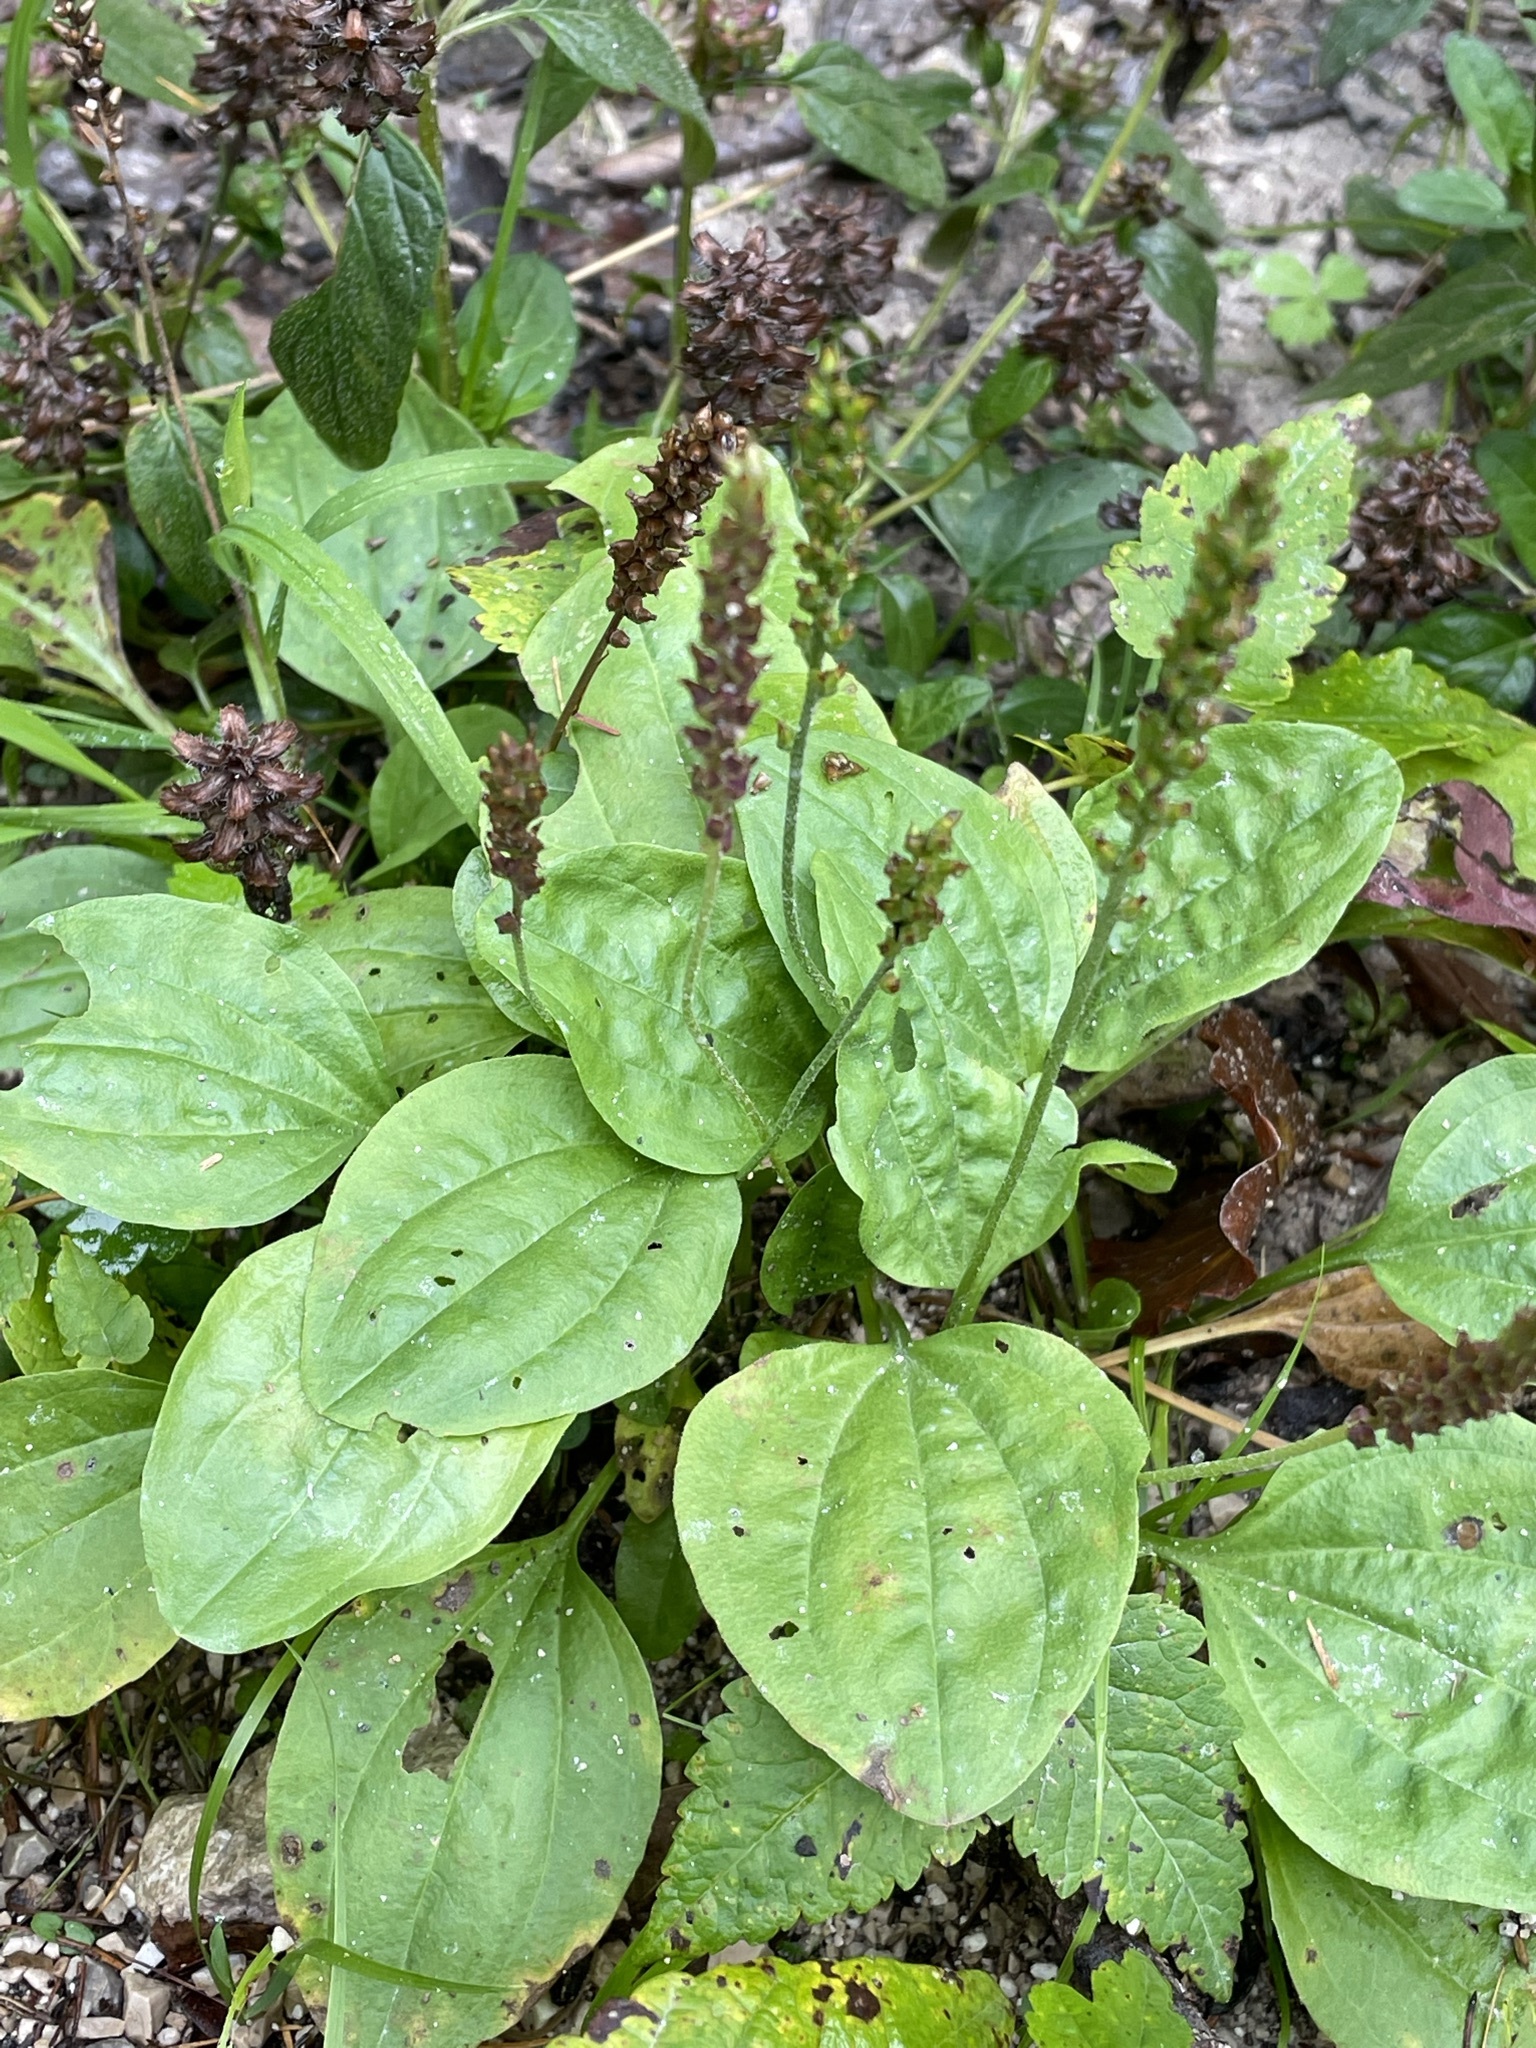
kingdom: Plantae
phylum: Tracheophyta
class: Magnoliopsida
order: Lamiales
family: Plantaginaceae
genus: Plantago
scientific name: Plantago major
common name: Common plantain
